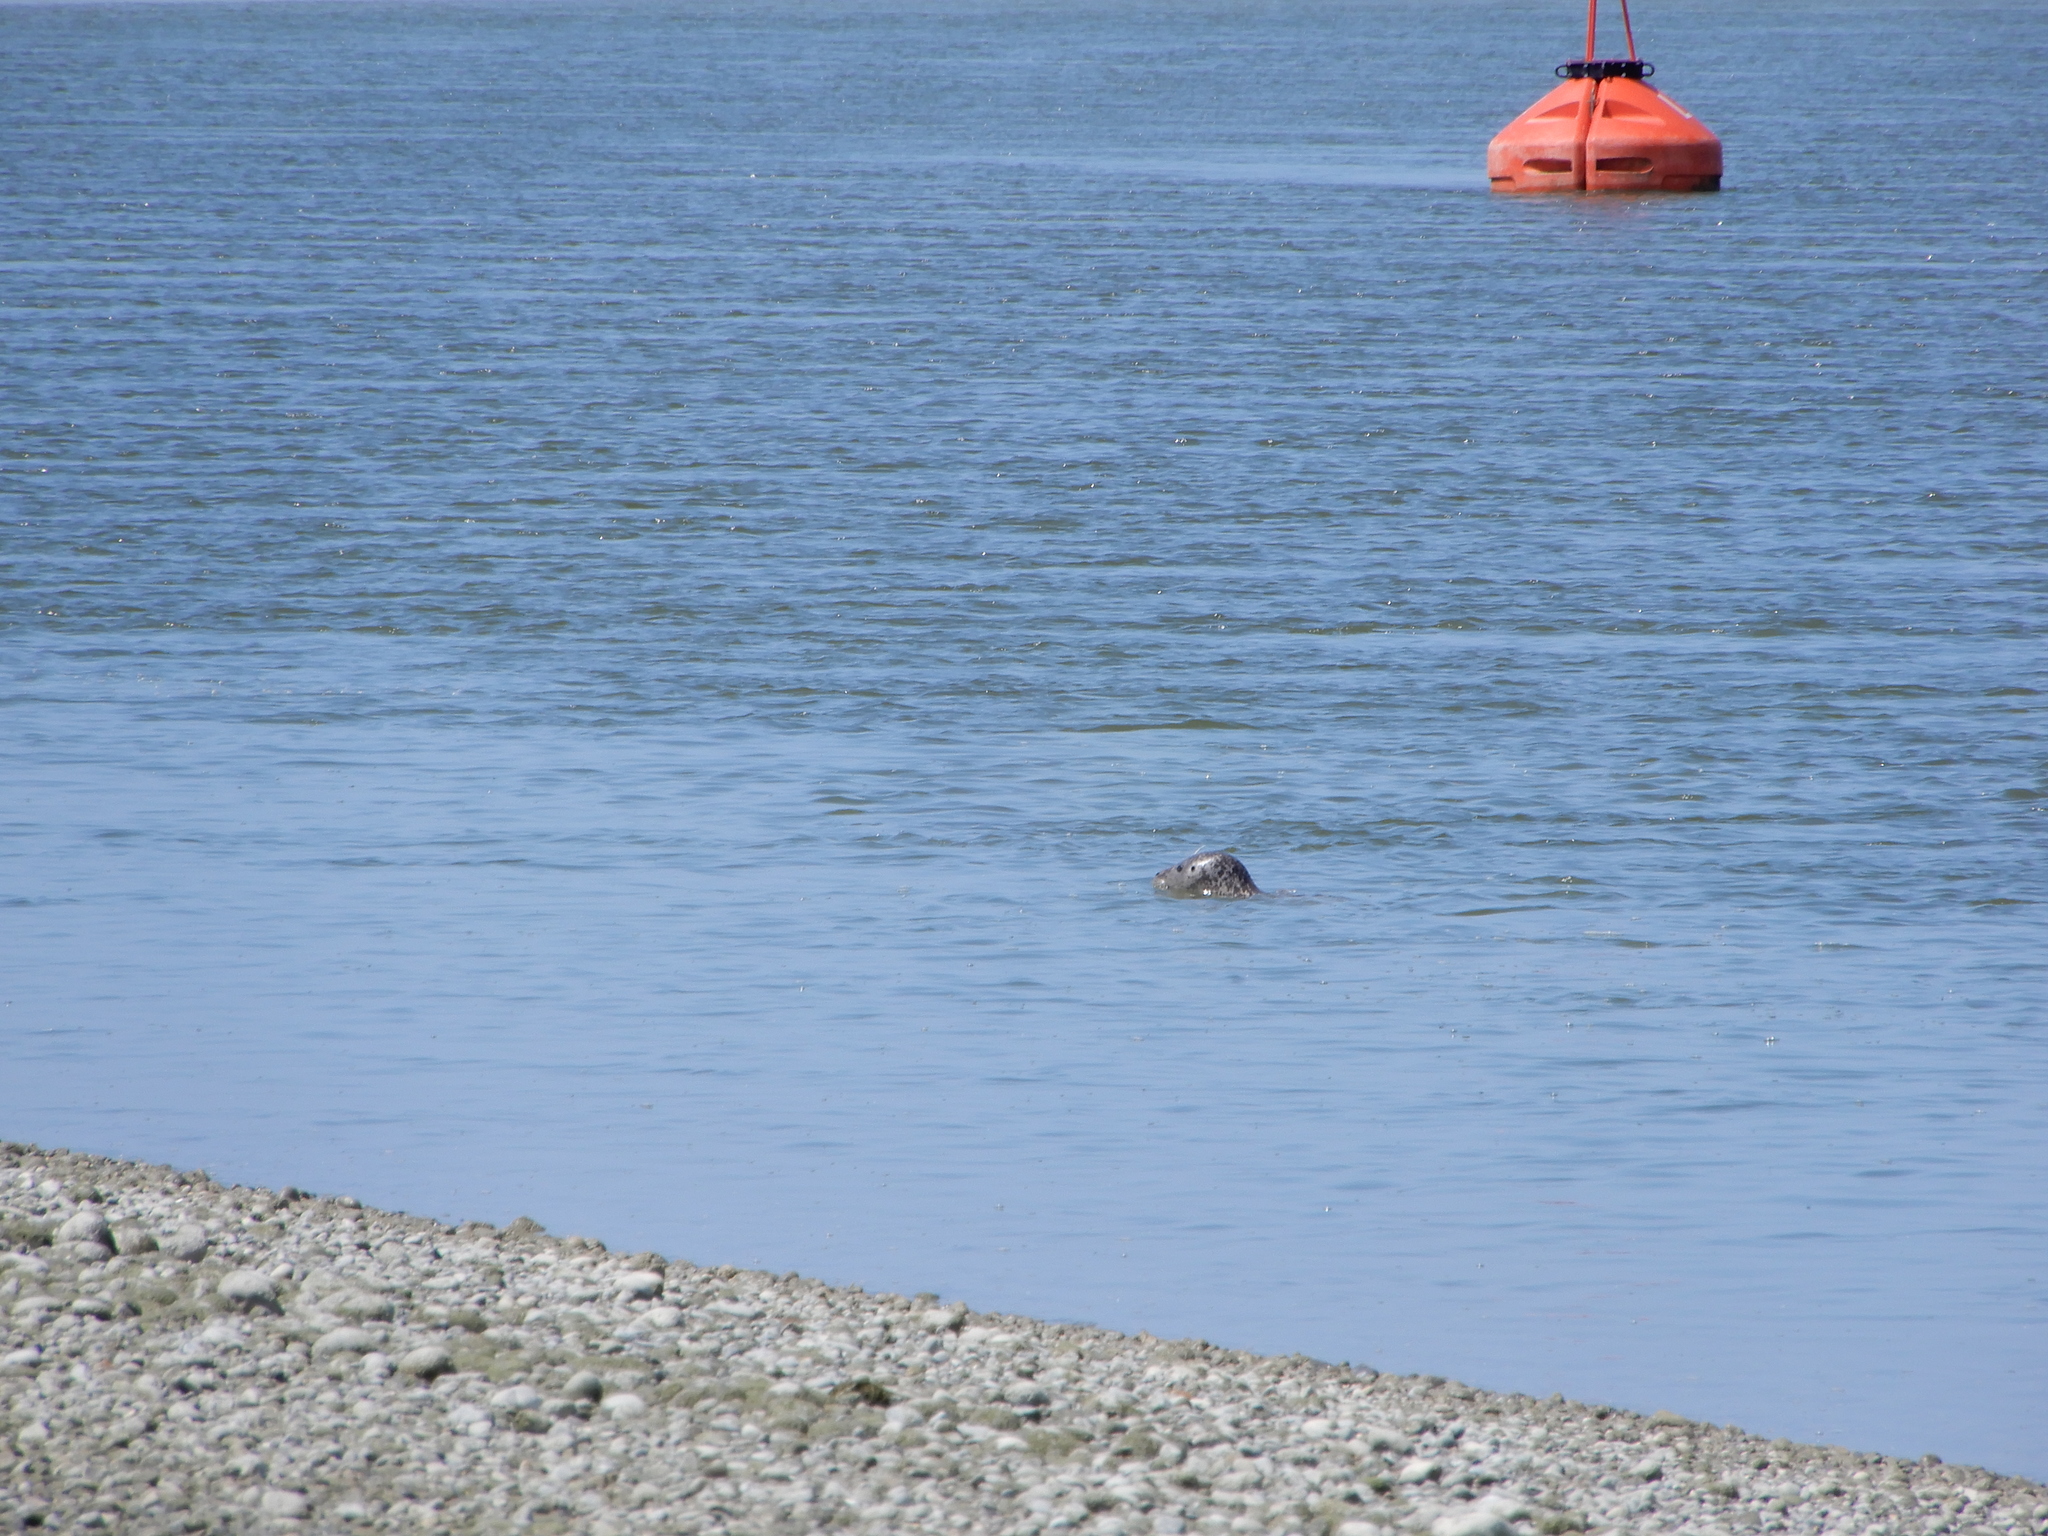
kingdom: Animalia
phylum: Chordata
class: Mammalia
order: Carnivora
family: Phocidae
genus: Phoca
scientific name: Phoca vitulina
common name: Harbor seal
